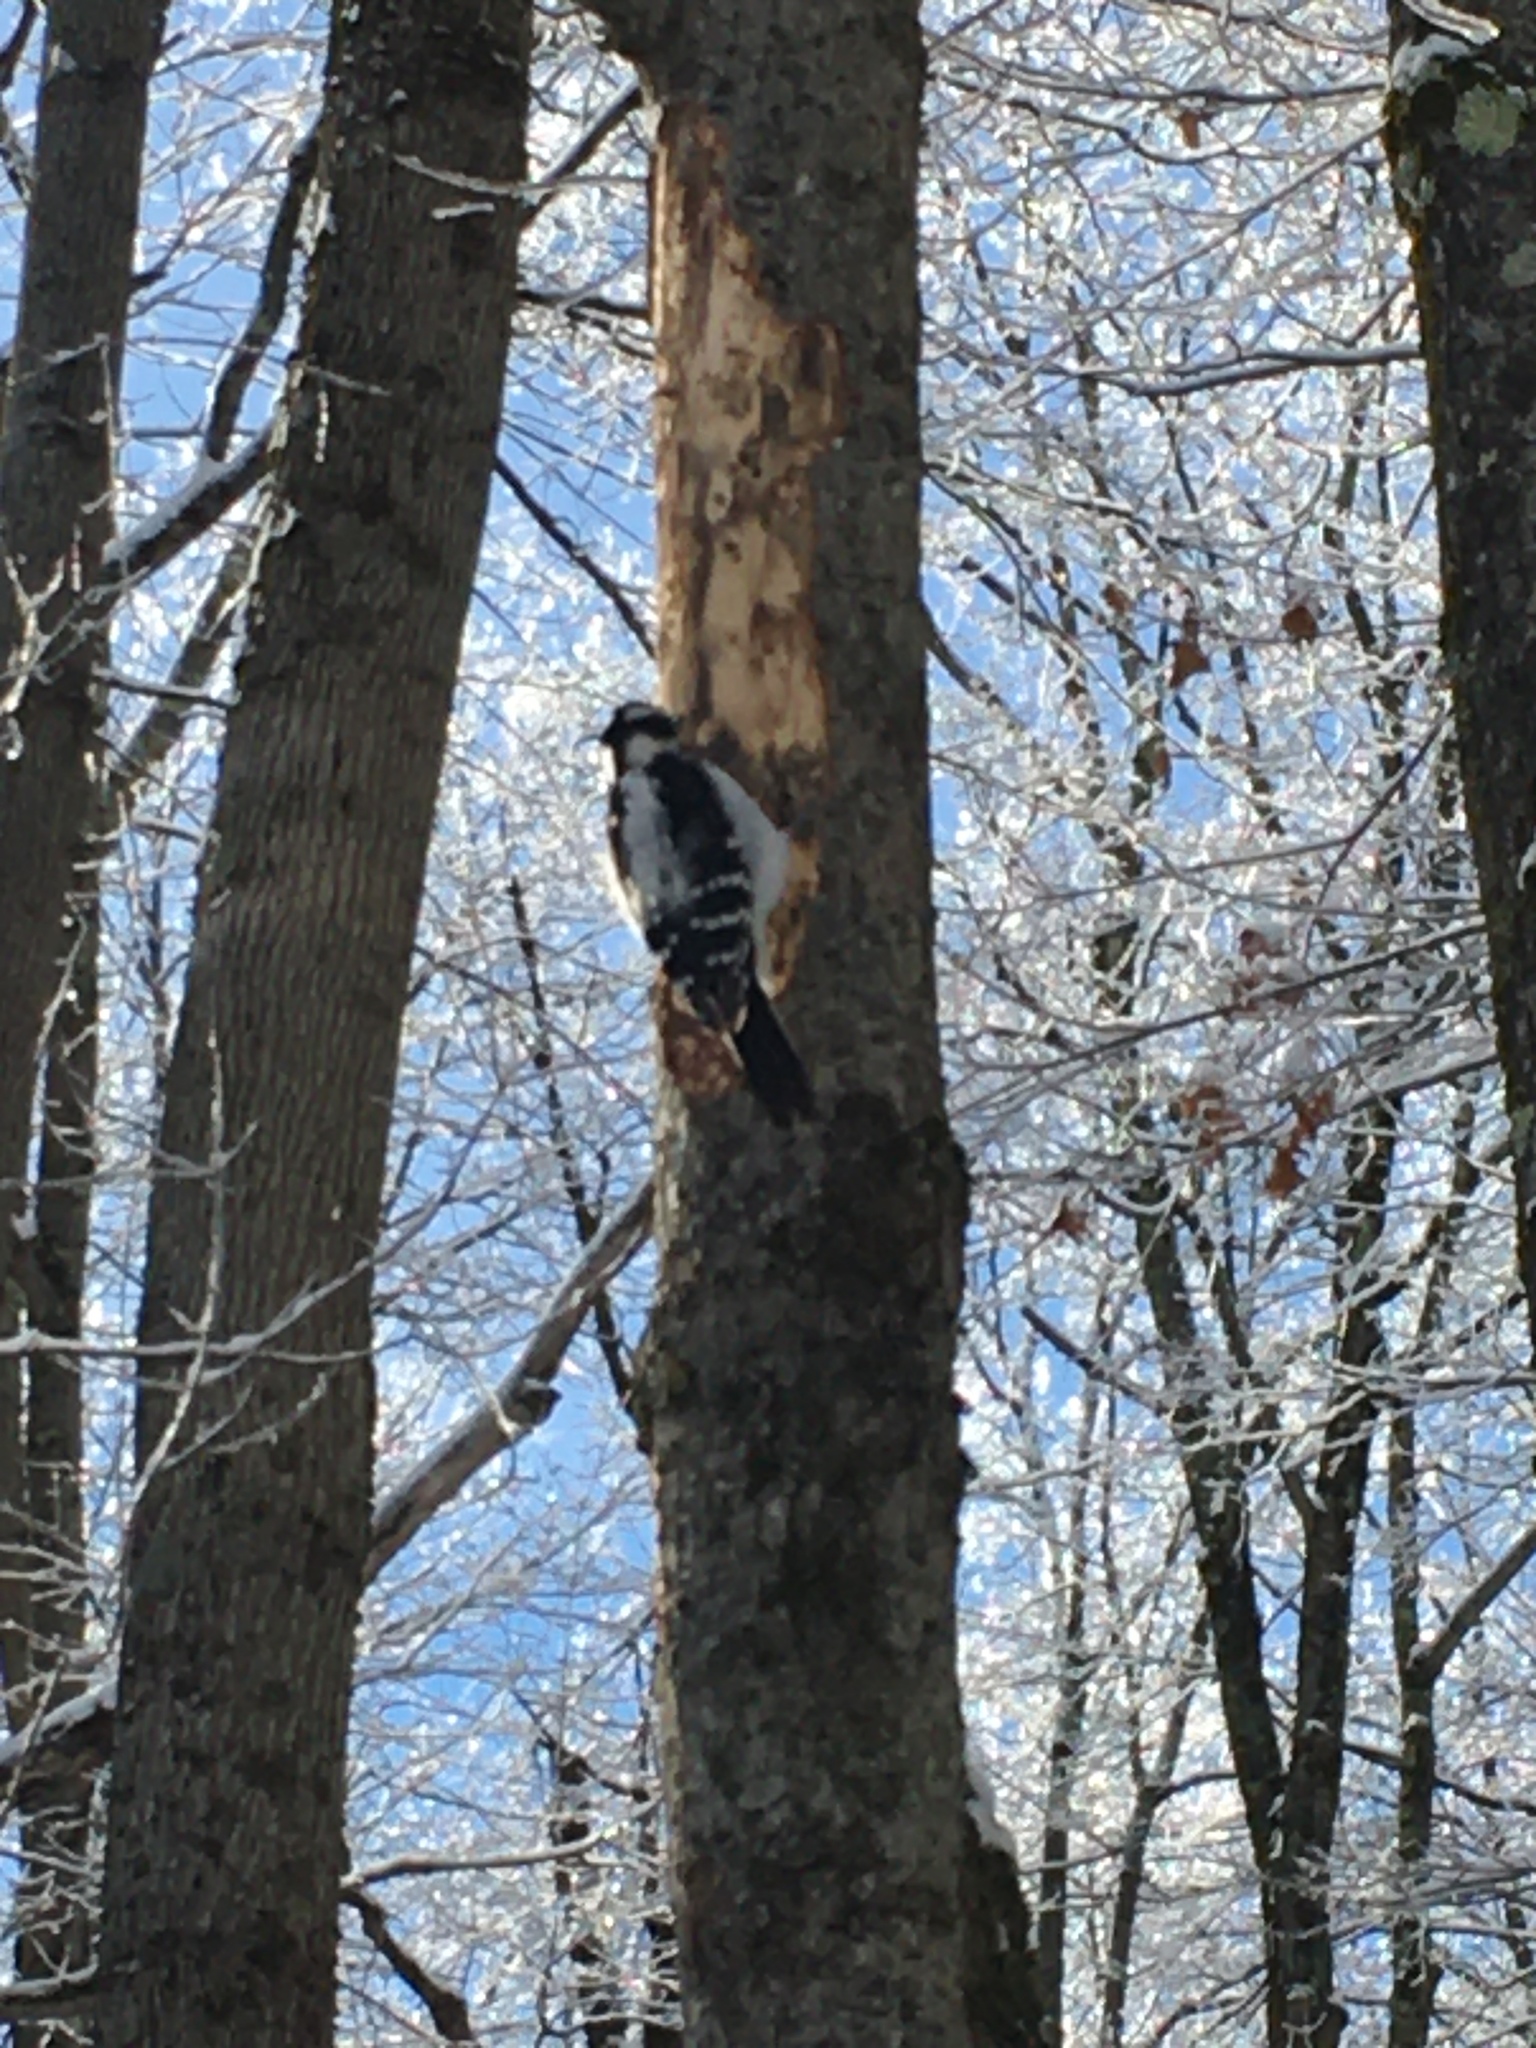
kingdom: Animalia
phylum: Chordata
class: Aves
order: Piciformes
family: Picidae
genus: Leuconotopicus
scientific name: Leuconotopicus villosus
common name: Hairy woodpecker
